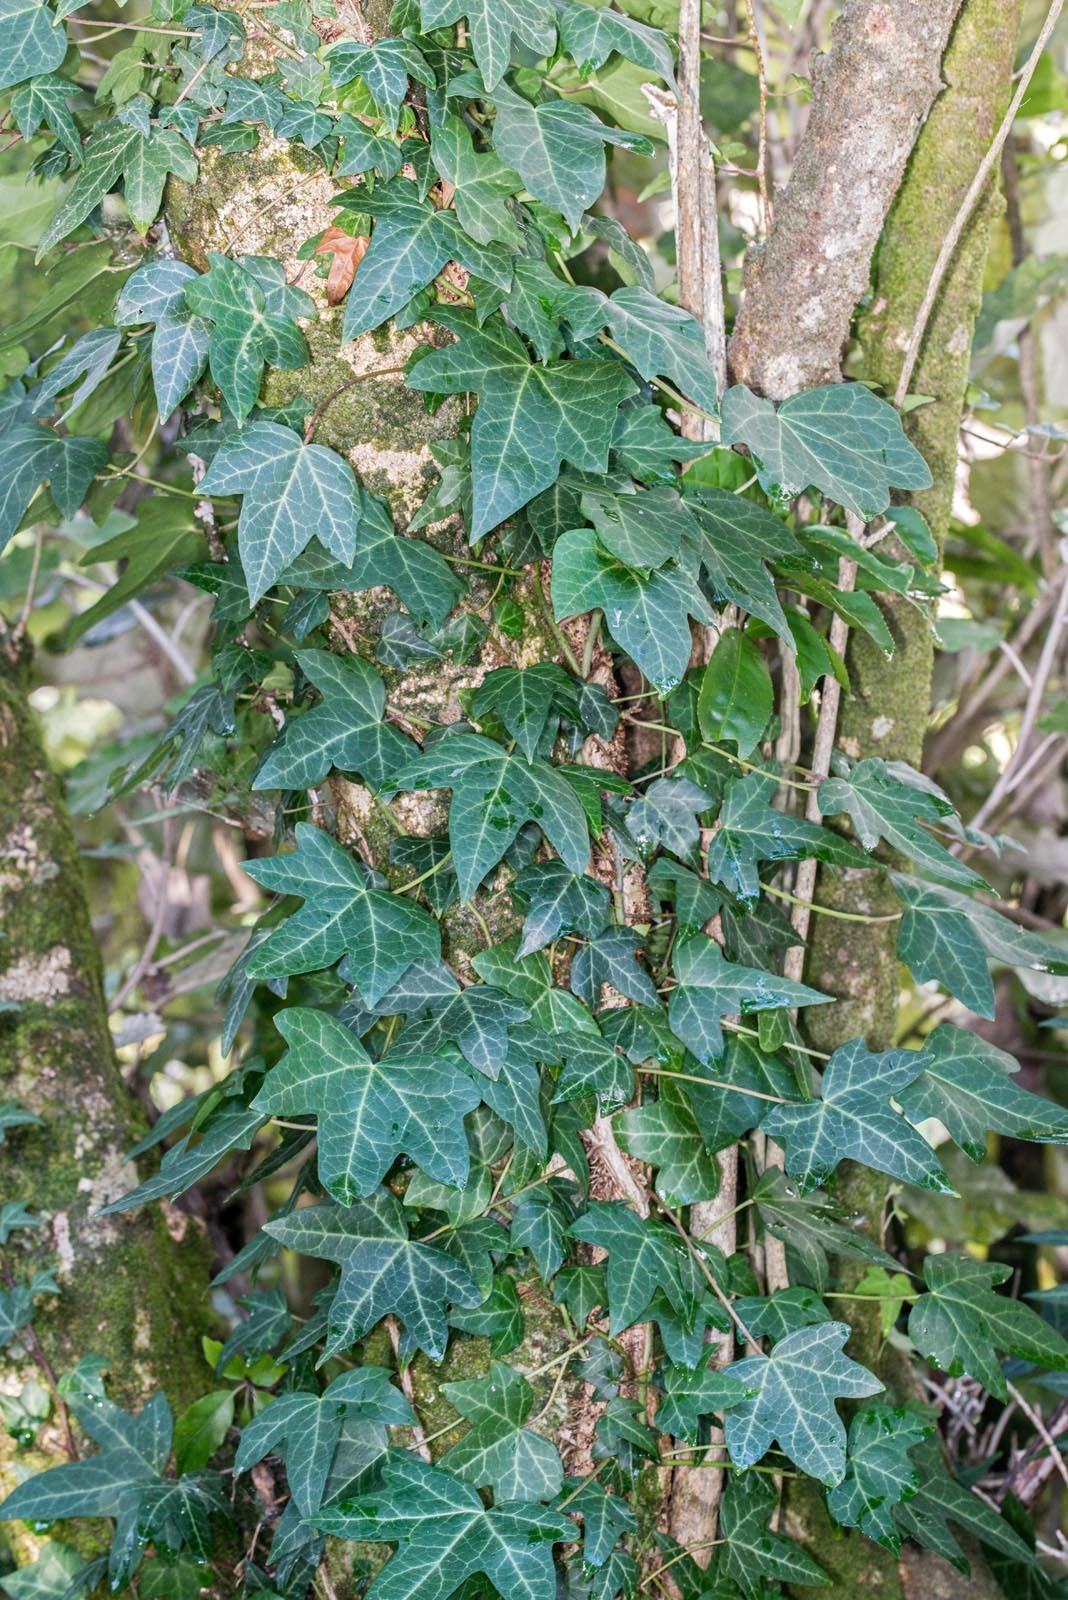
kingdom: Plantae
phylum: Tracheophyta
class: Magnoliopsida
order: Apiales
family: Araliaceae
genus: Hedera
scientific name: Hedera helix
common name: Ivy
